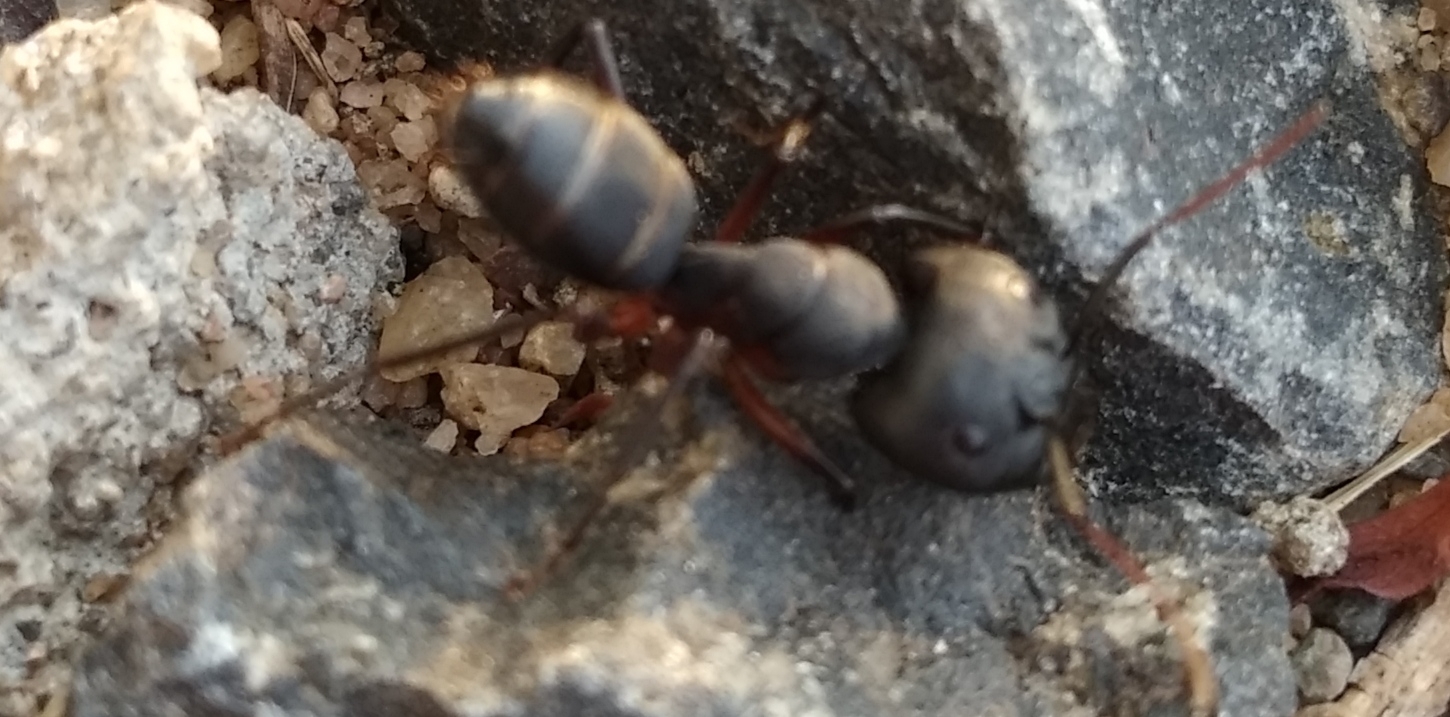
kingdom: Animalia
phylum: Arthropoda
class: Insecta
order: Hymenoptera
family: Formicidae
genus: Camponotus
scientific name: Camponotus compressus
